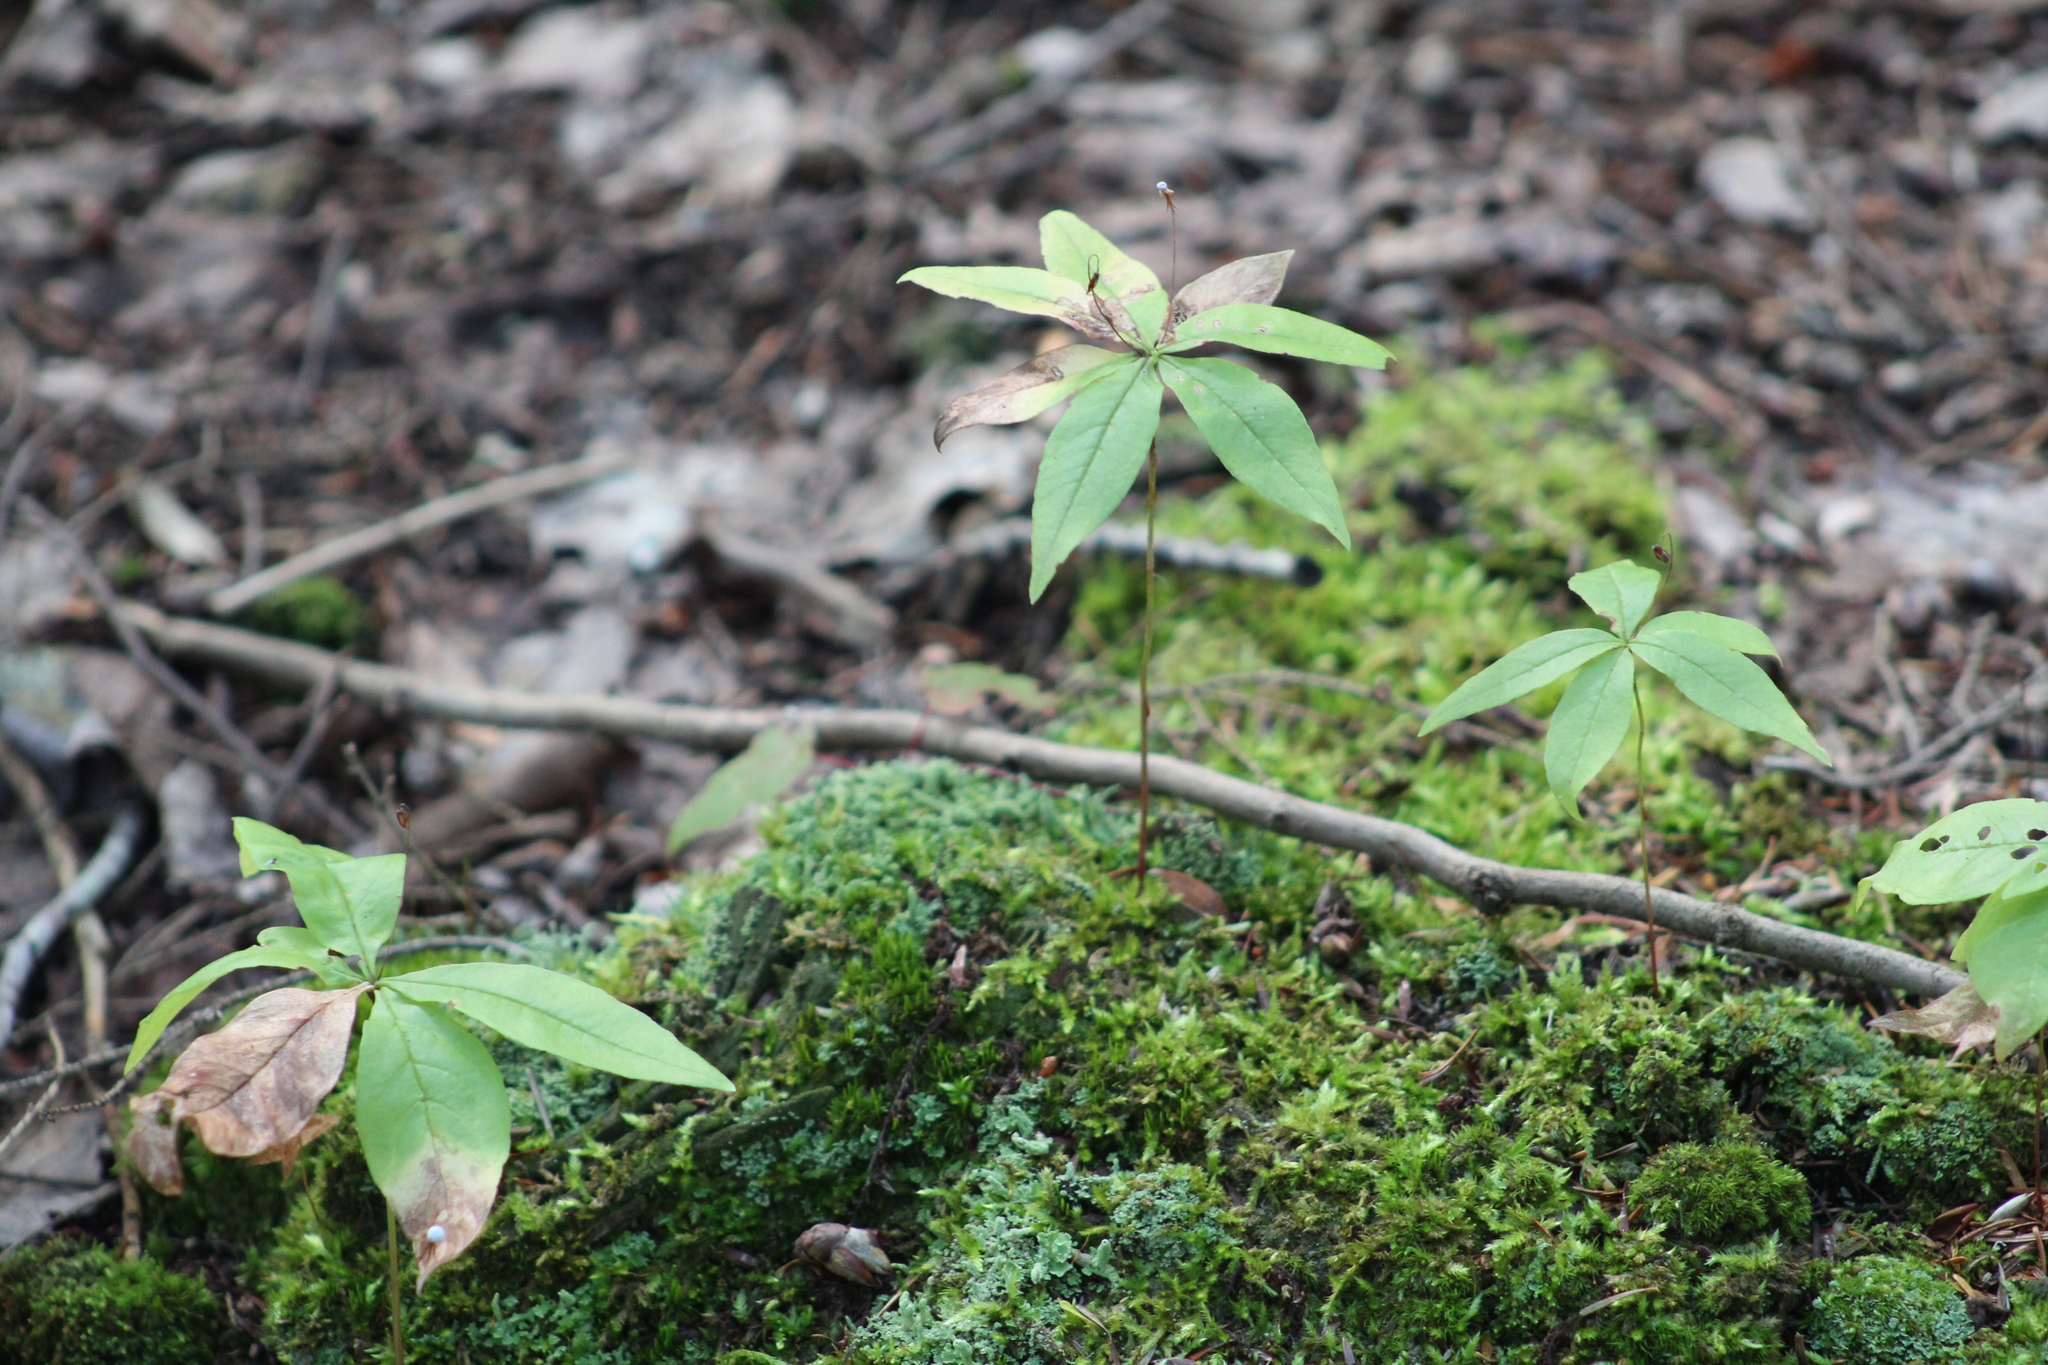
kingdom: Plantae
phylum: Tracheophyta
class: Magnoliopsida
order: Ericales
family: Primulaceae
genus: Lysimachia
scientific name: Lysimachia borealis
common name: American starflower
